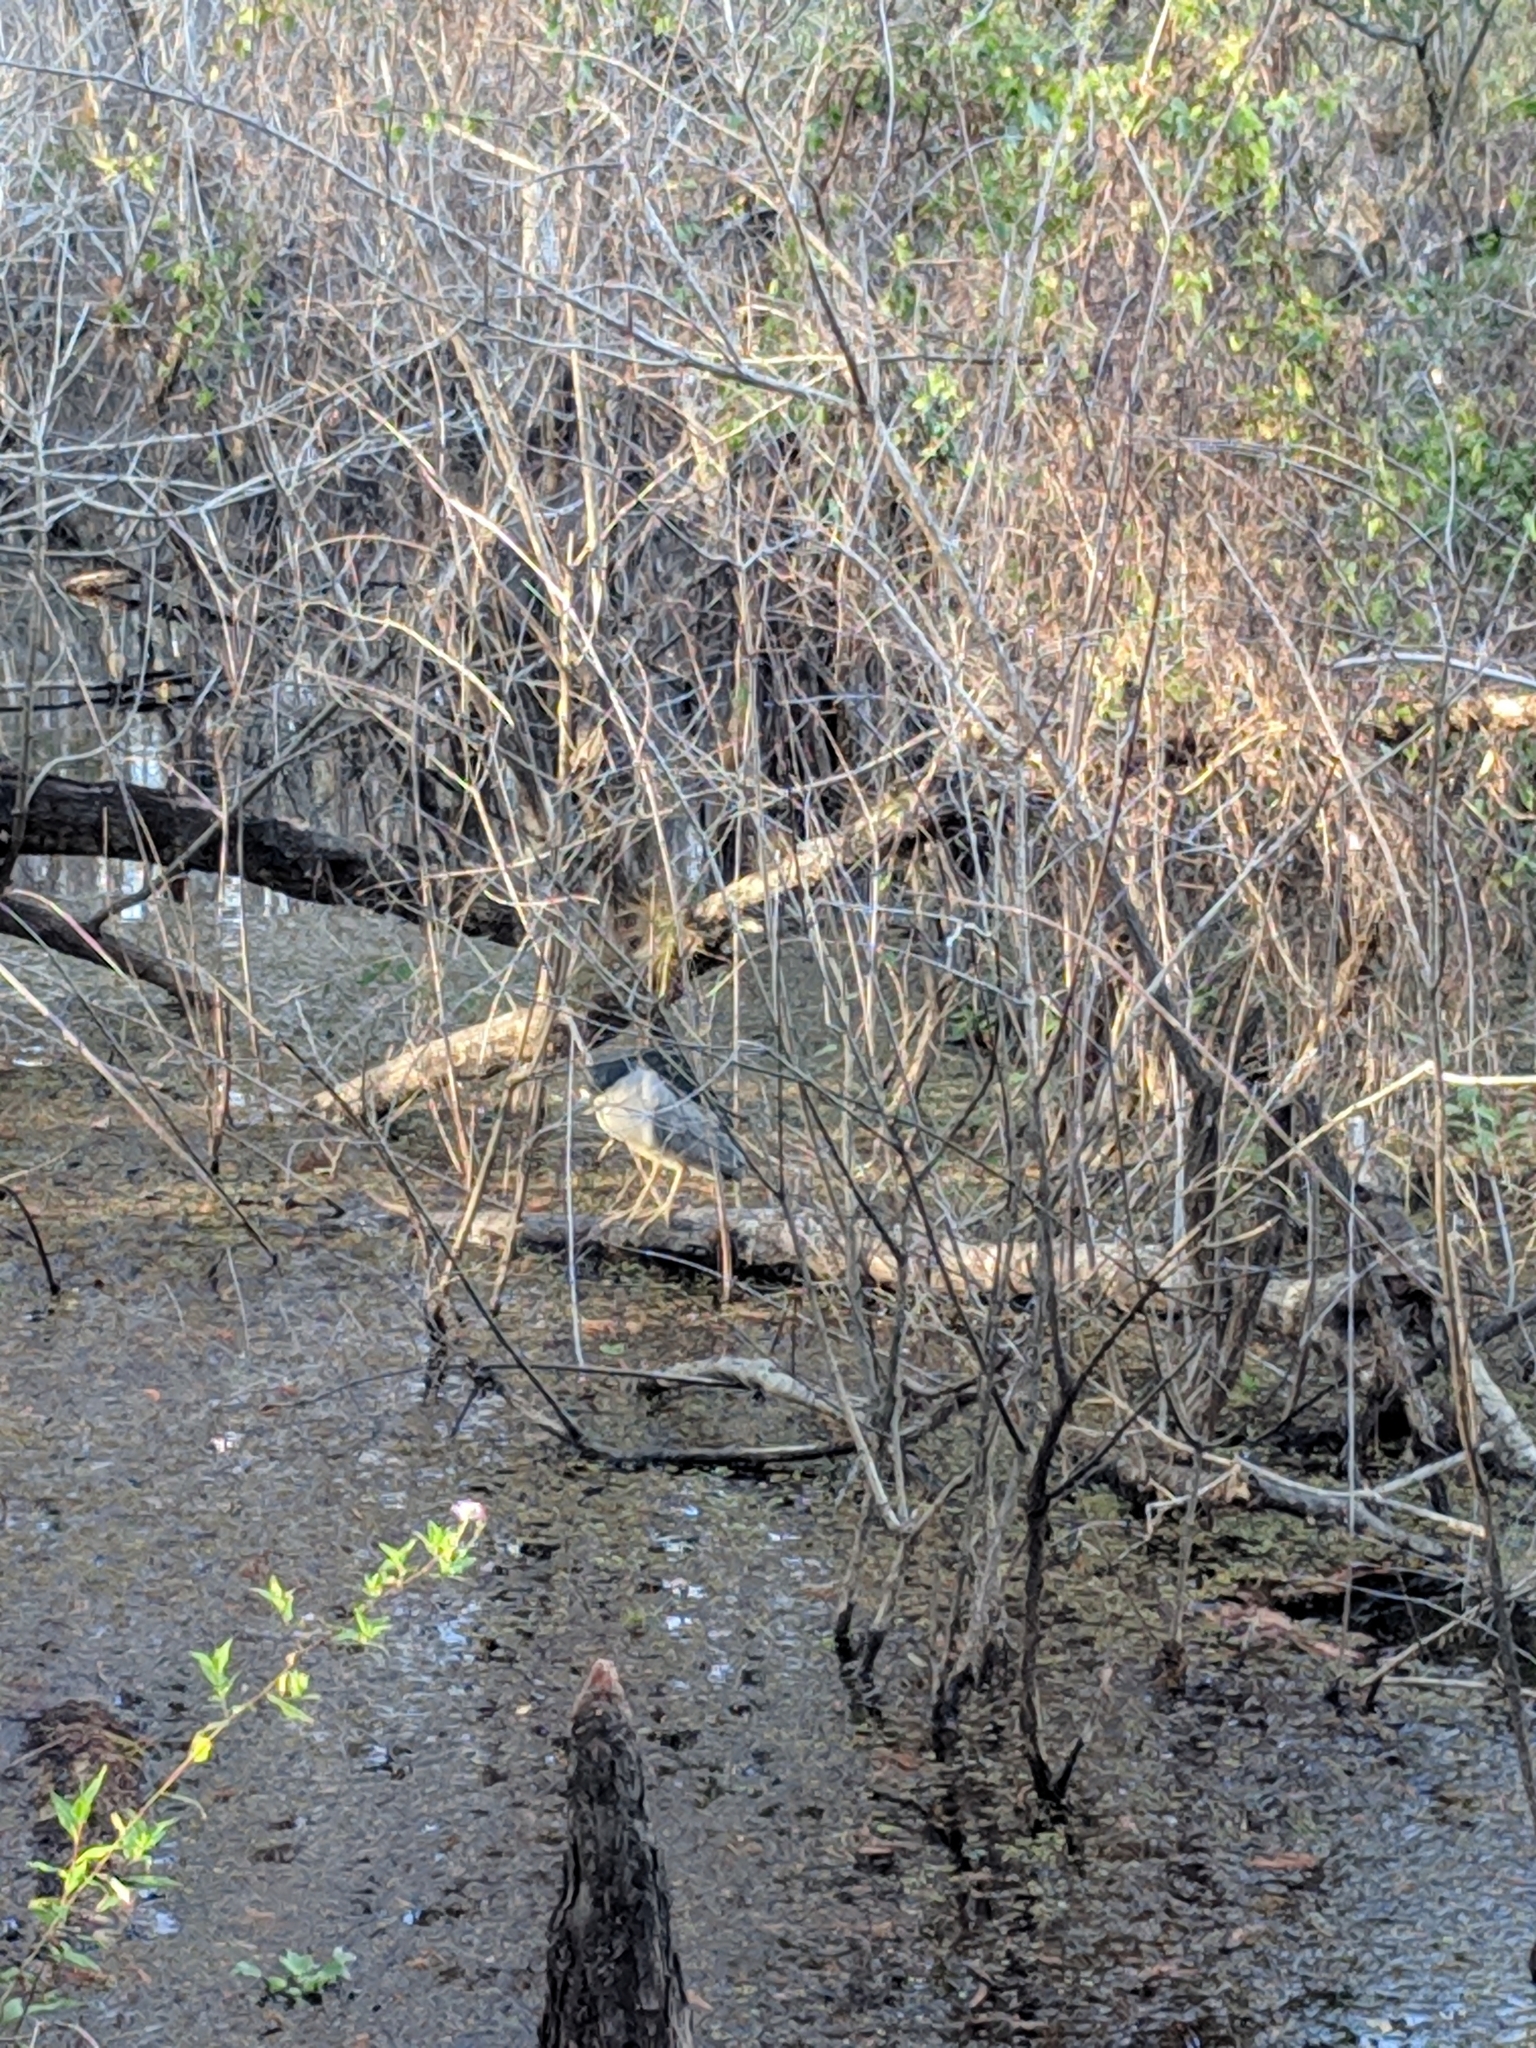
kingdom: Animalia
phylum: Chordata
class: Aves
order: Pelecaniformes
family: Ardeidae
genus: Nycticorax
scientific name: Nycticorax nycticorax
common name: Black-crowned night heron
